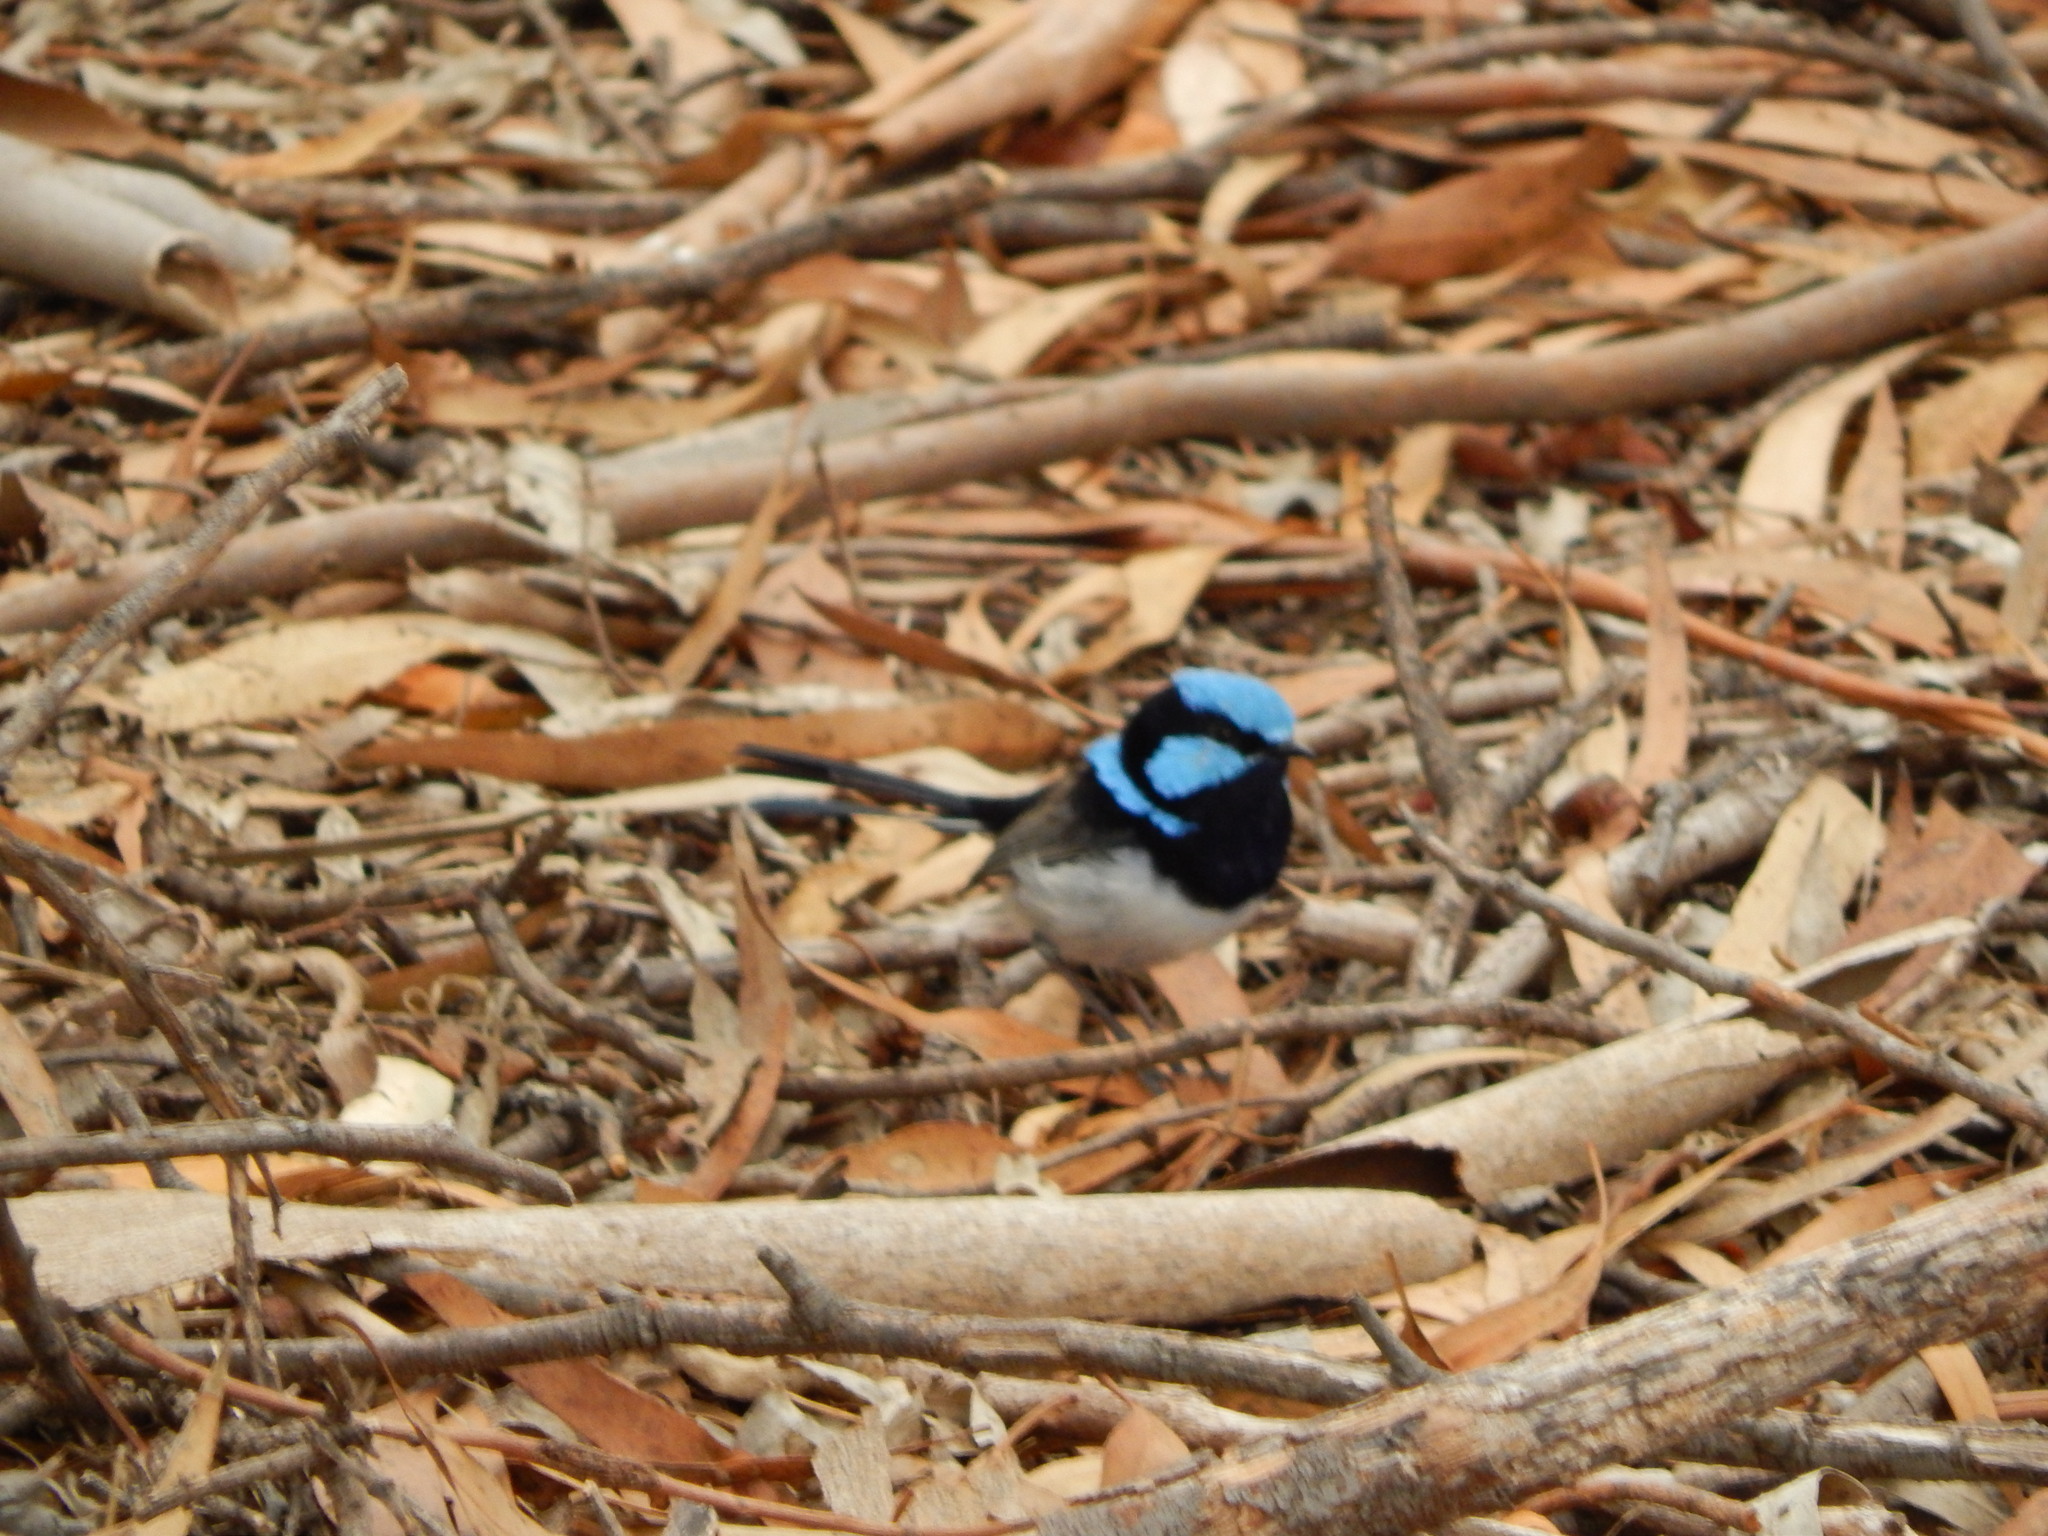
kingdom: Animalia
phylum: Chordata
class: Aves
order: Passeriformes
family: Maluridae
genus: Malurus
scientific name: Malurus cyaneus
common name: Superb fairywren
